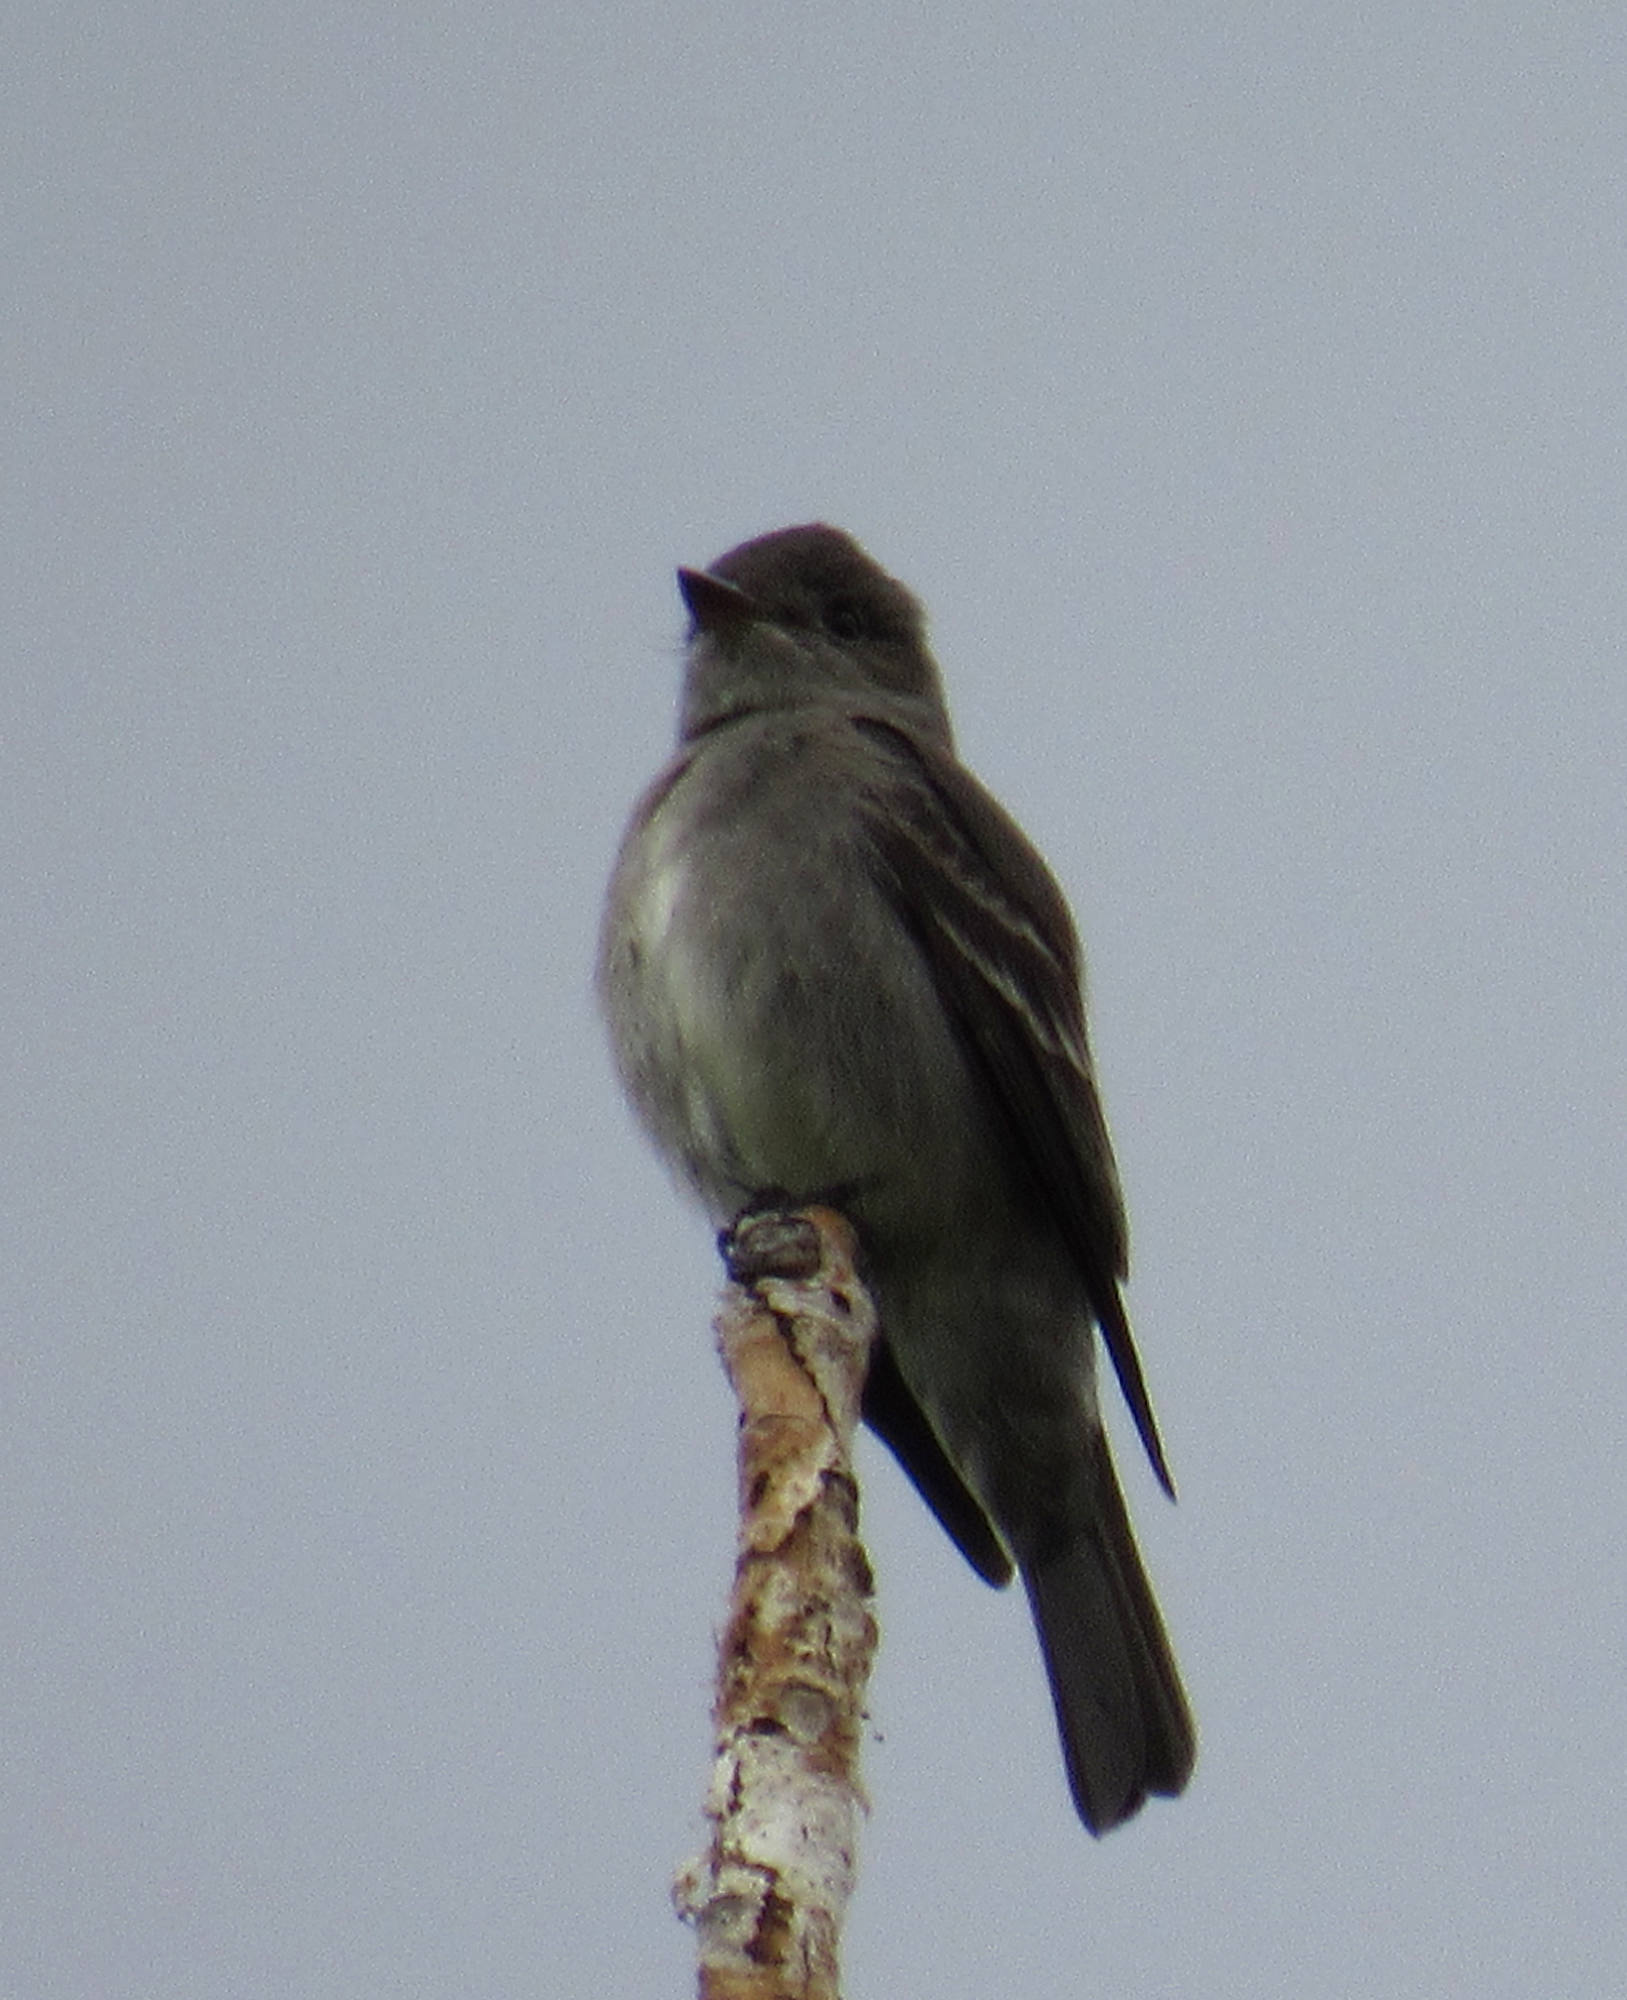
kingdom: Animalia
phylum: Chordata
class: Aves
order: Passeriformes
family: Tyrannidae
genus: Contopus
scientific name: Contopus sordidulus
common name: Western wood-pewee
